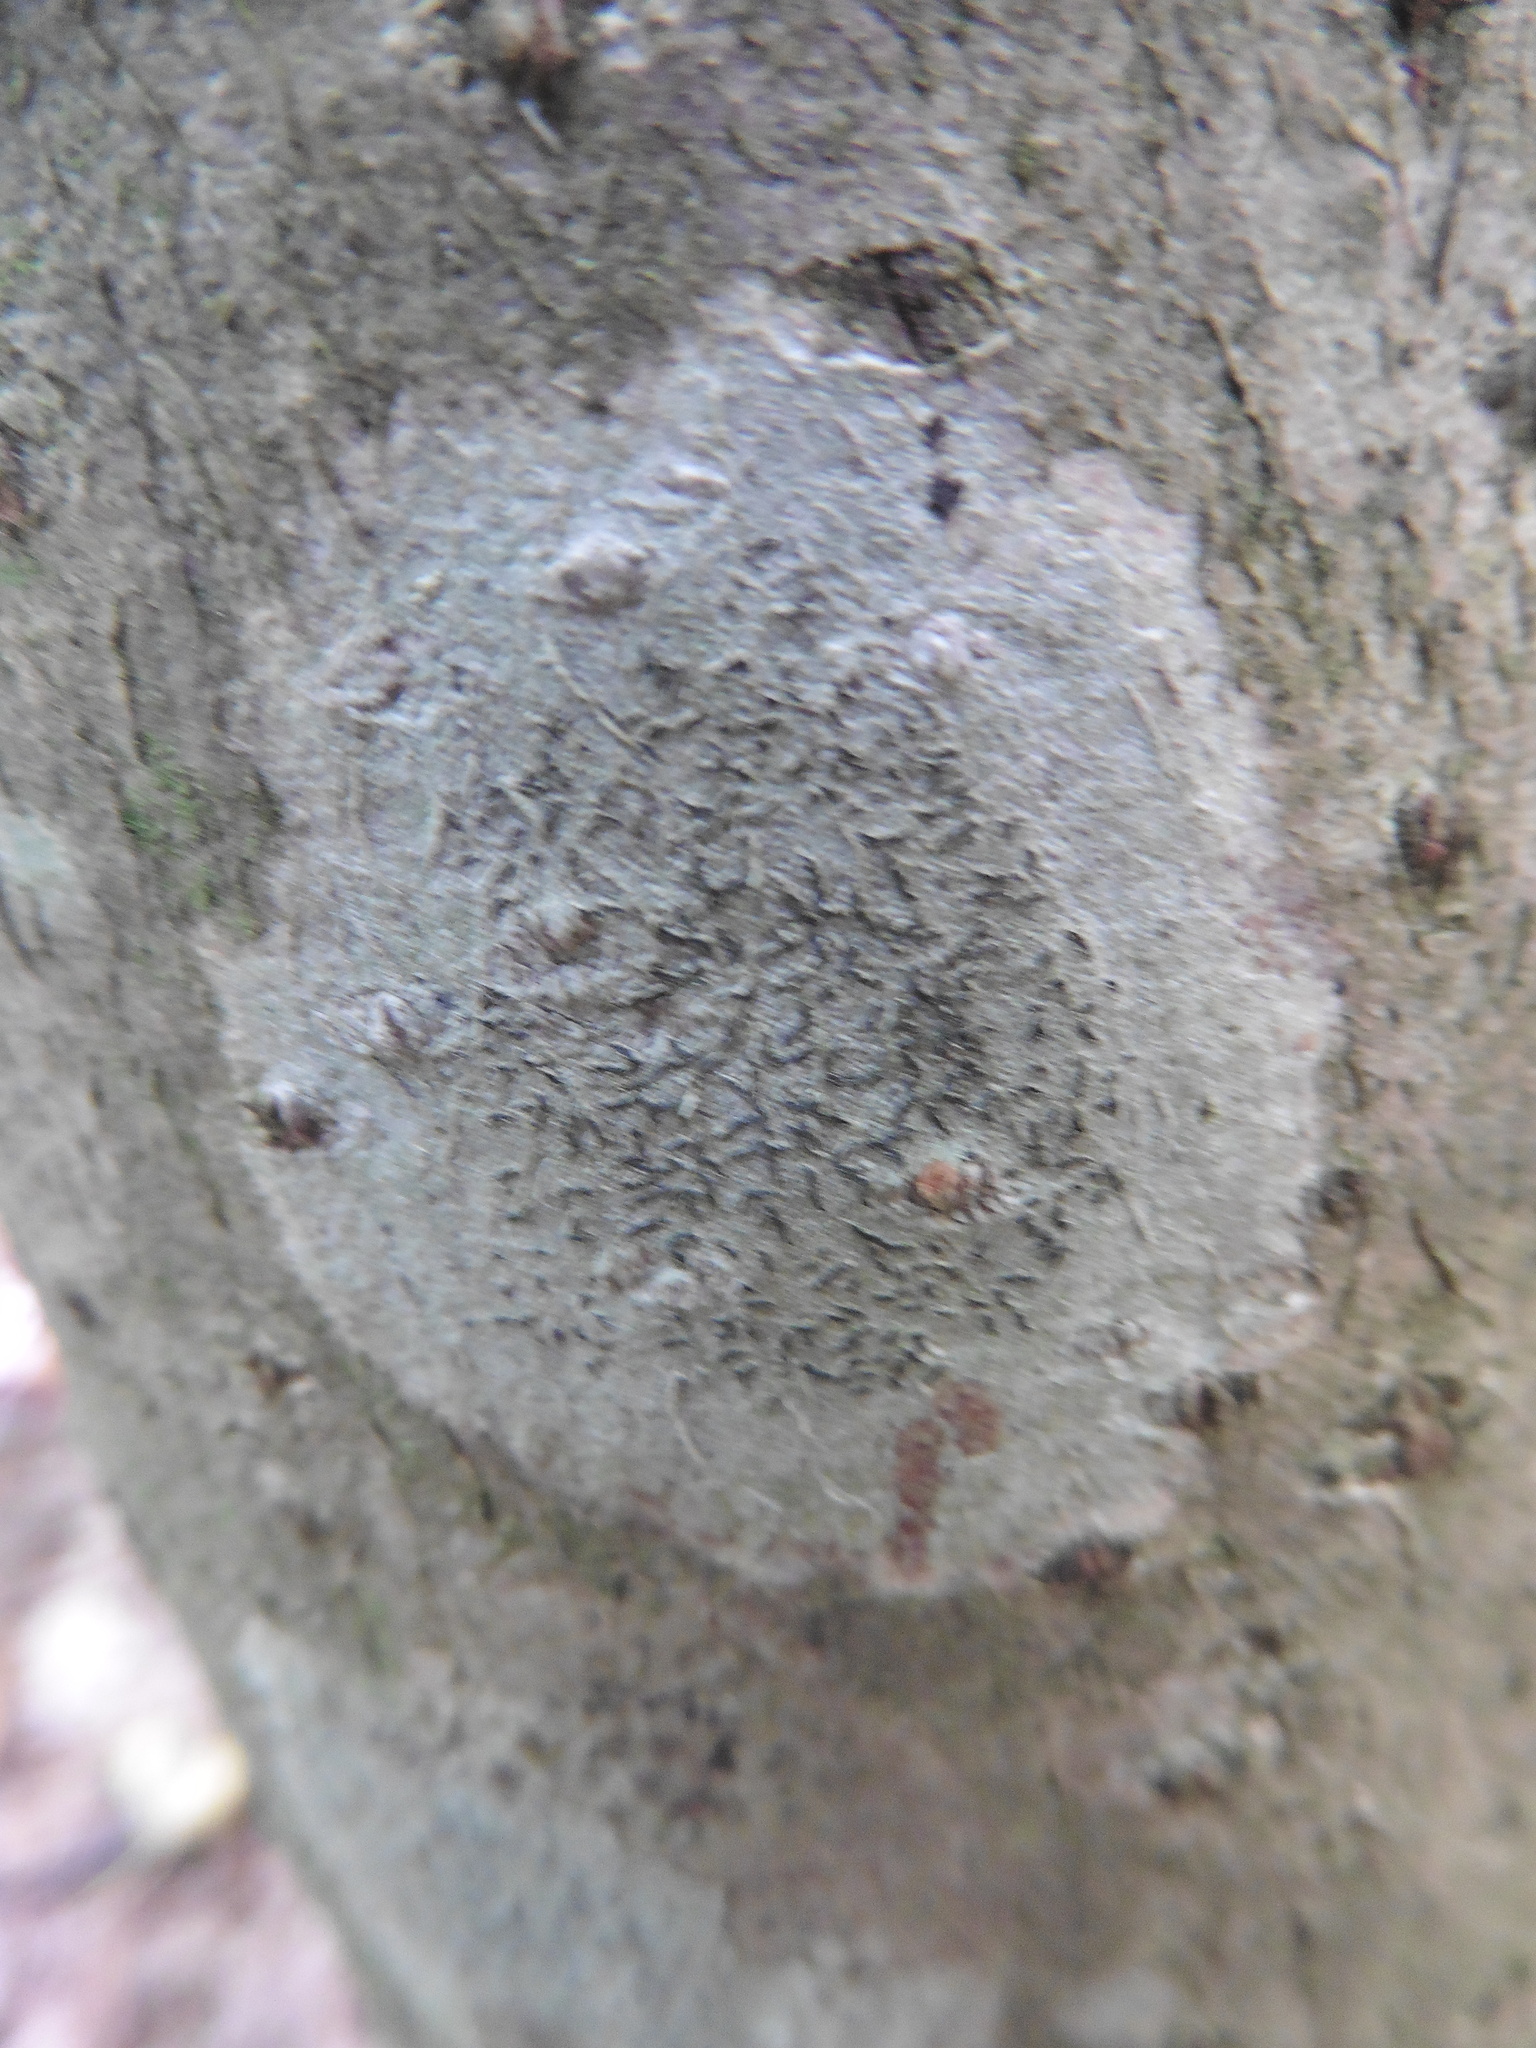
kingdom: Fungi
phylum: Ascomycota
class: Lecanoromycetes
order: Ostropales
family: Graphidaceae
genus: Graphis
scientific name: Graphis scripta
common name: Script lichen
